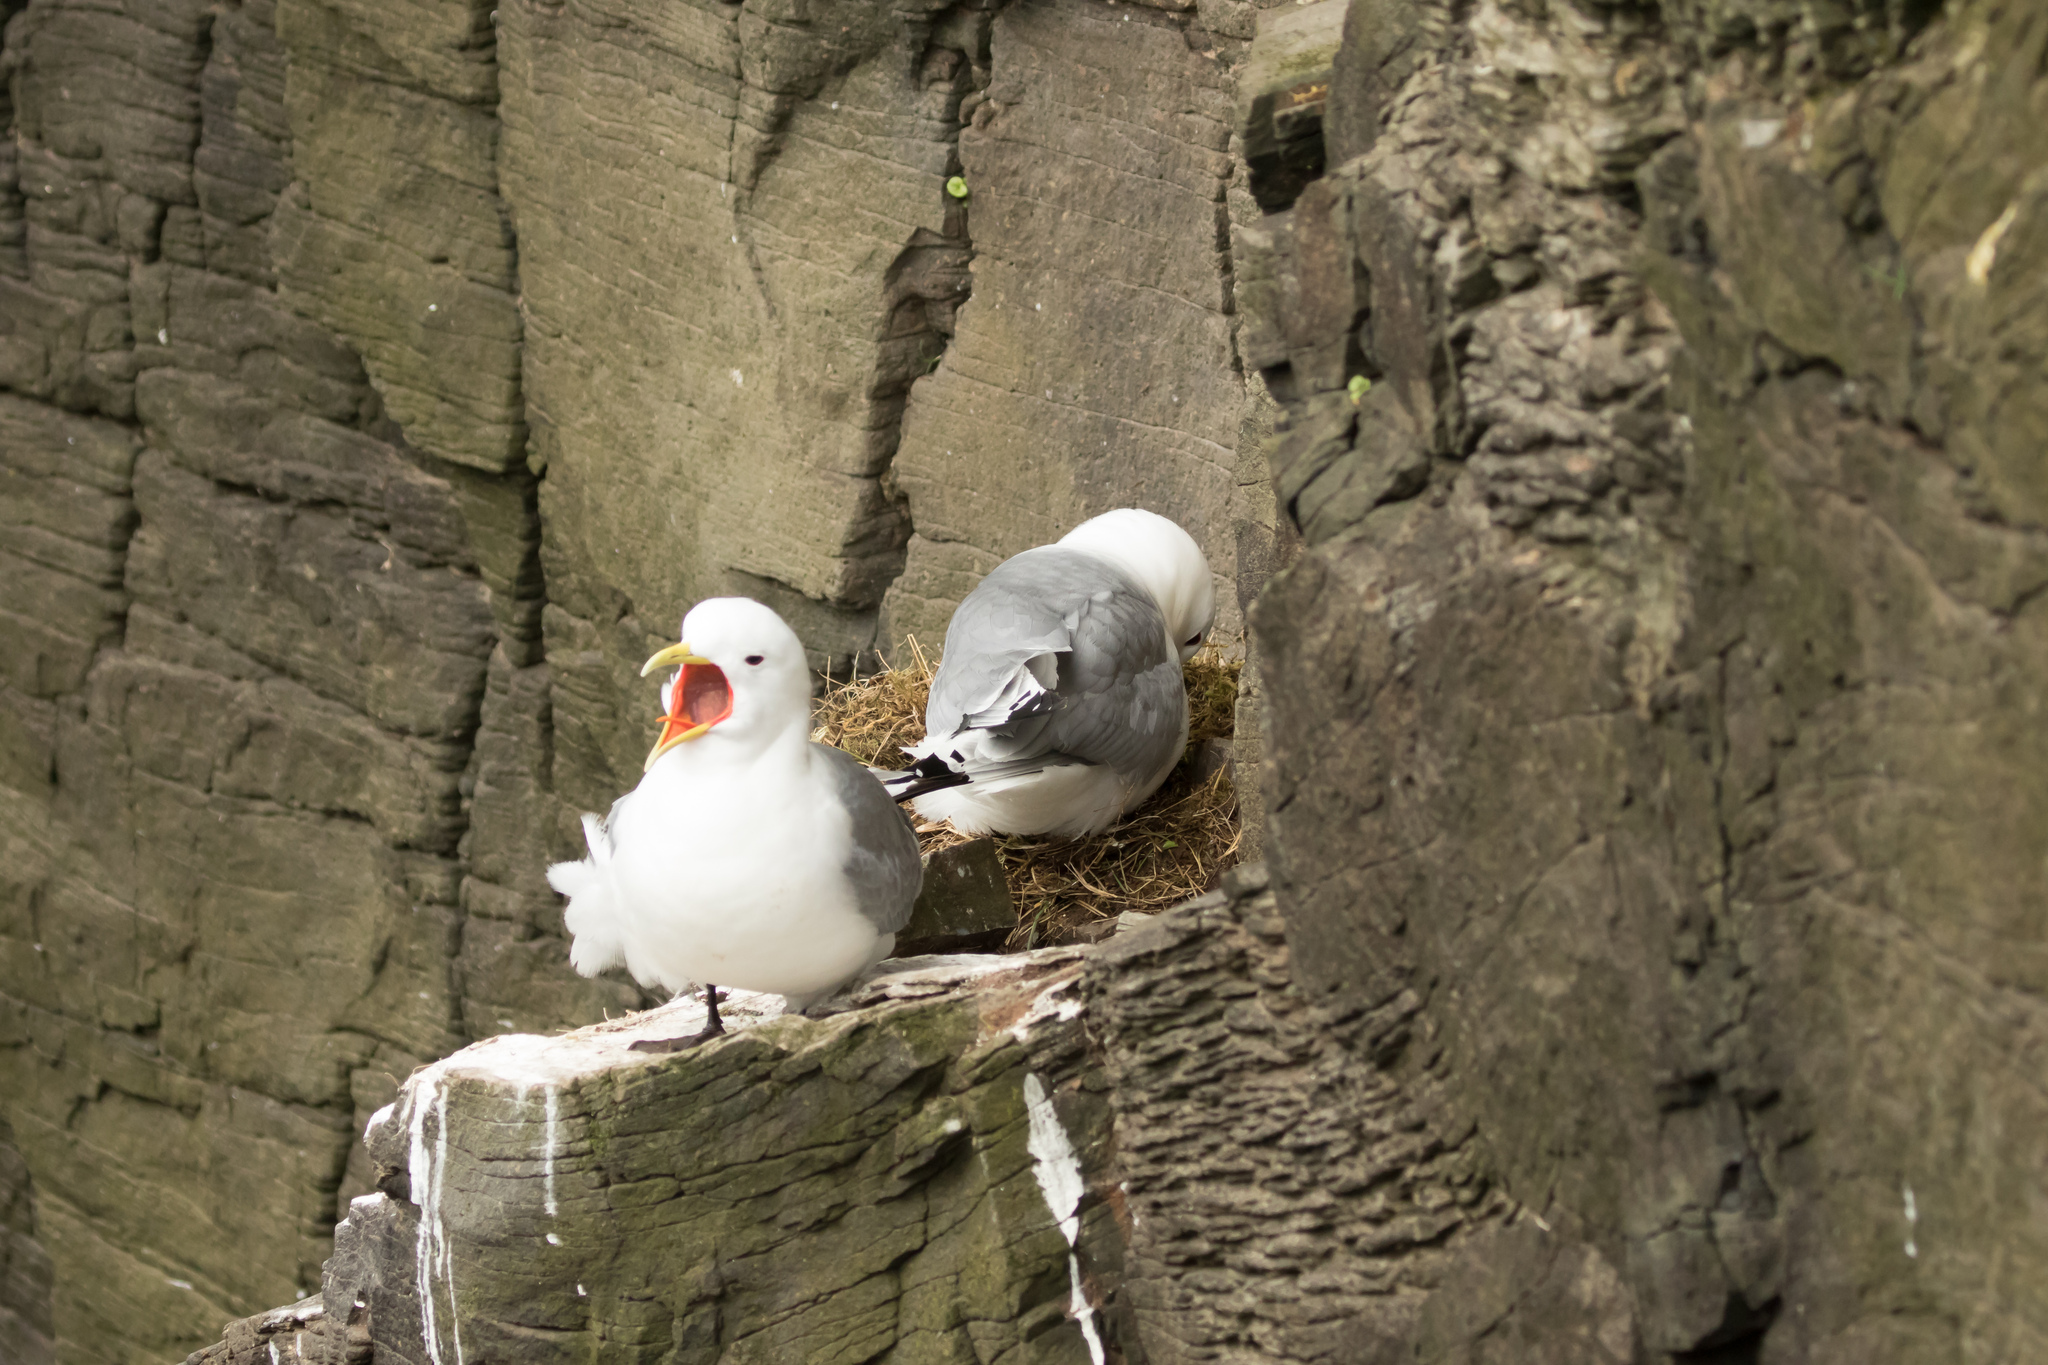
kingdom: Animalia
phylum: Chordata
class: Aves
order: Charadriiformes
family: Laridae
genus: Rissa
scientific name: Rissa tridactyla
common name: Black-legged kittiwake
